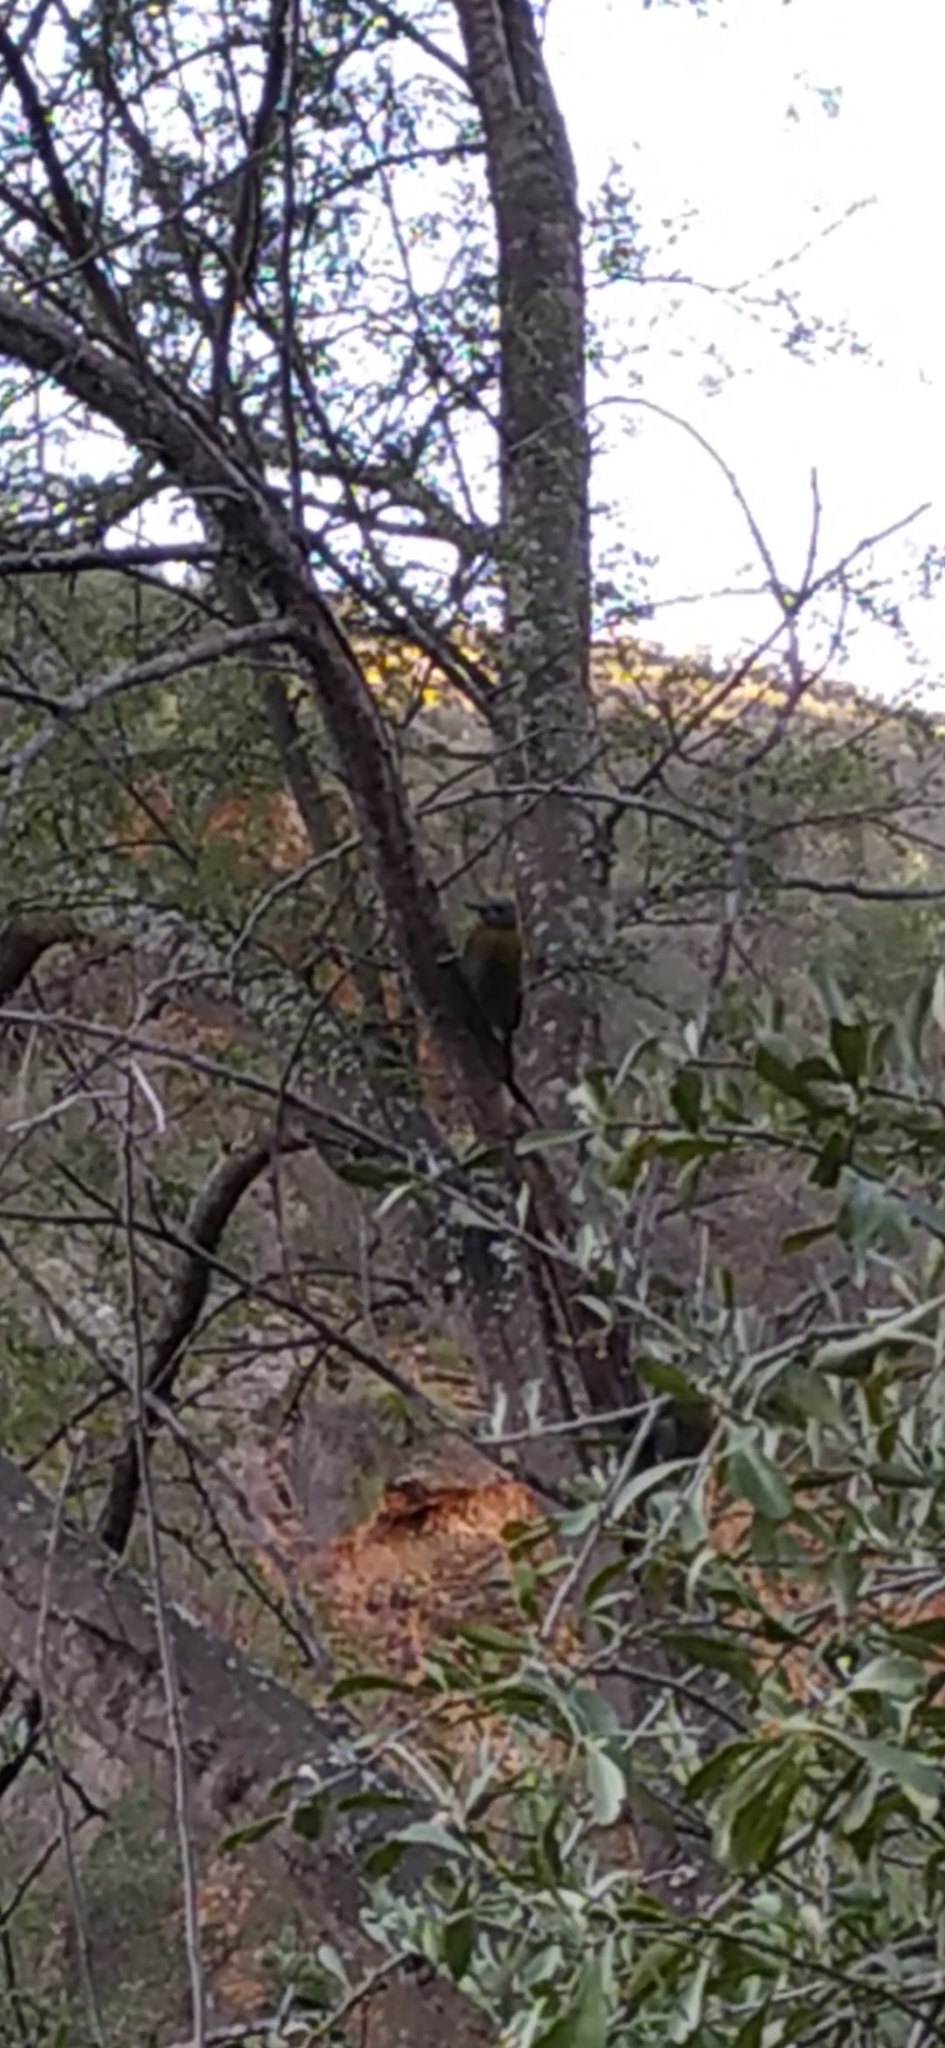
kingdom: Animalia
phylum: Chordata
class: Aves
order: Piciformes
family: Picidae
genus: Dendropicos
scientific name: Dendropicos griseocephalus
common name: Olive woodpecker
